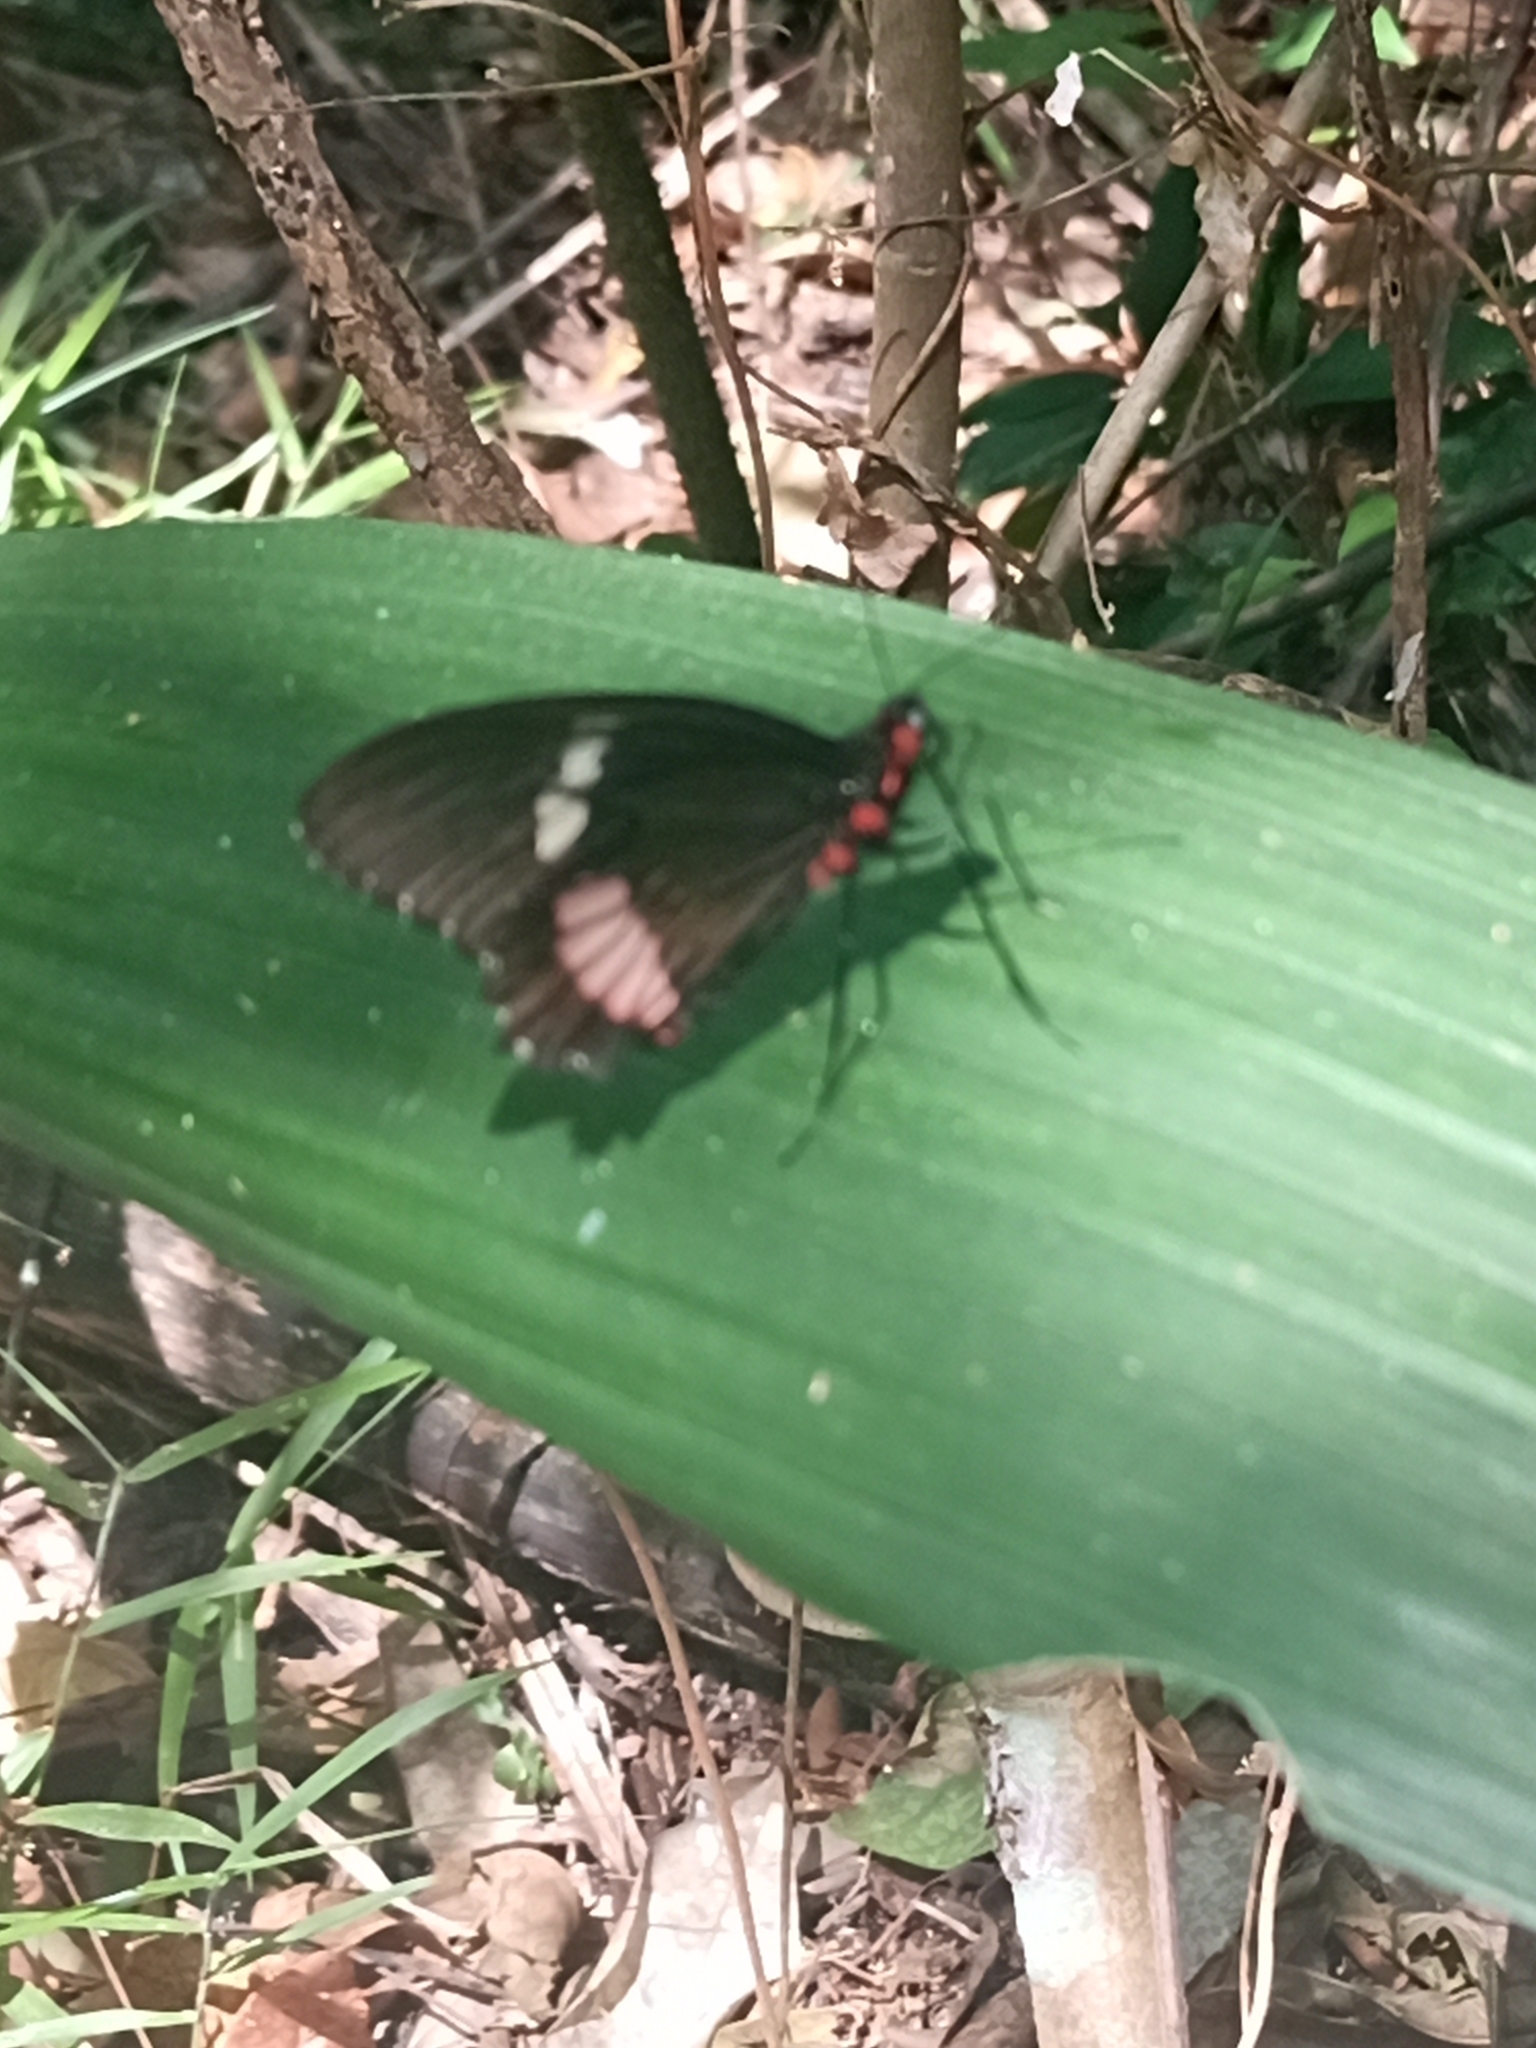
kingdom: Animalia
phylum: Arthropoda
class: Insecta
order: Lepidoptera
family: Papilionidae
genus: Parides
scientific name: Parides iphidamas
